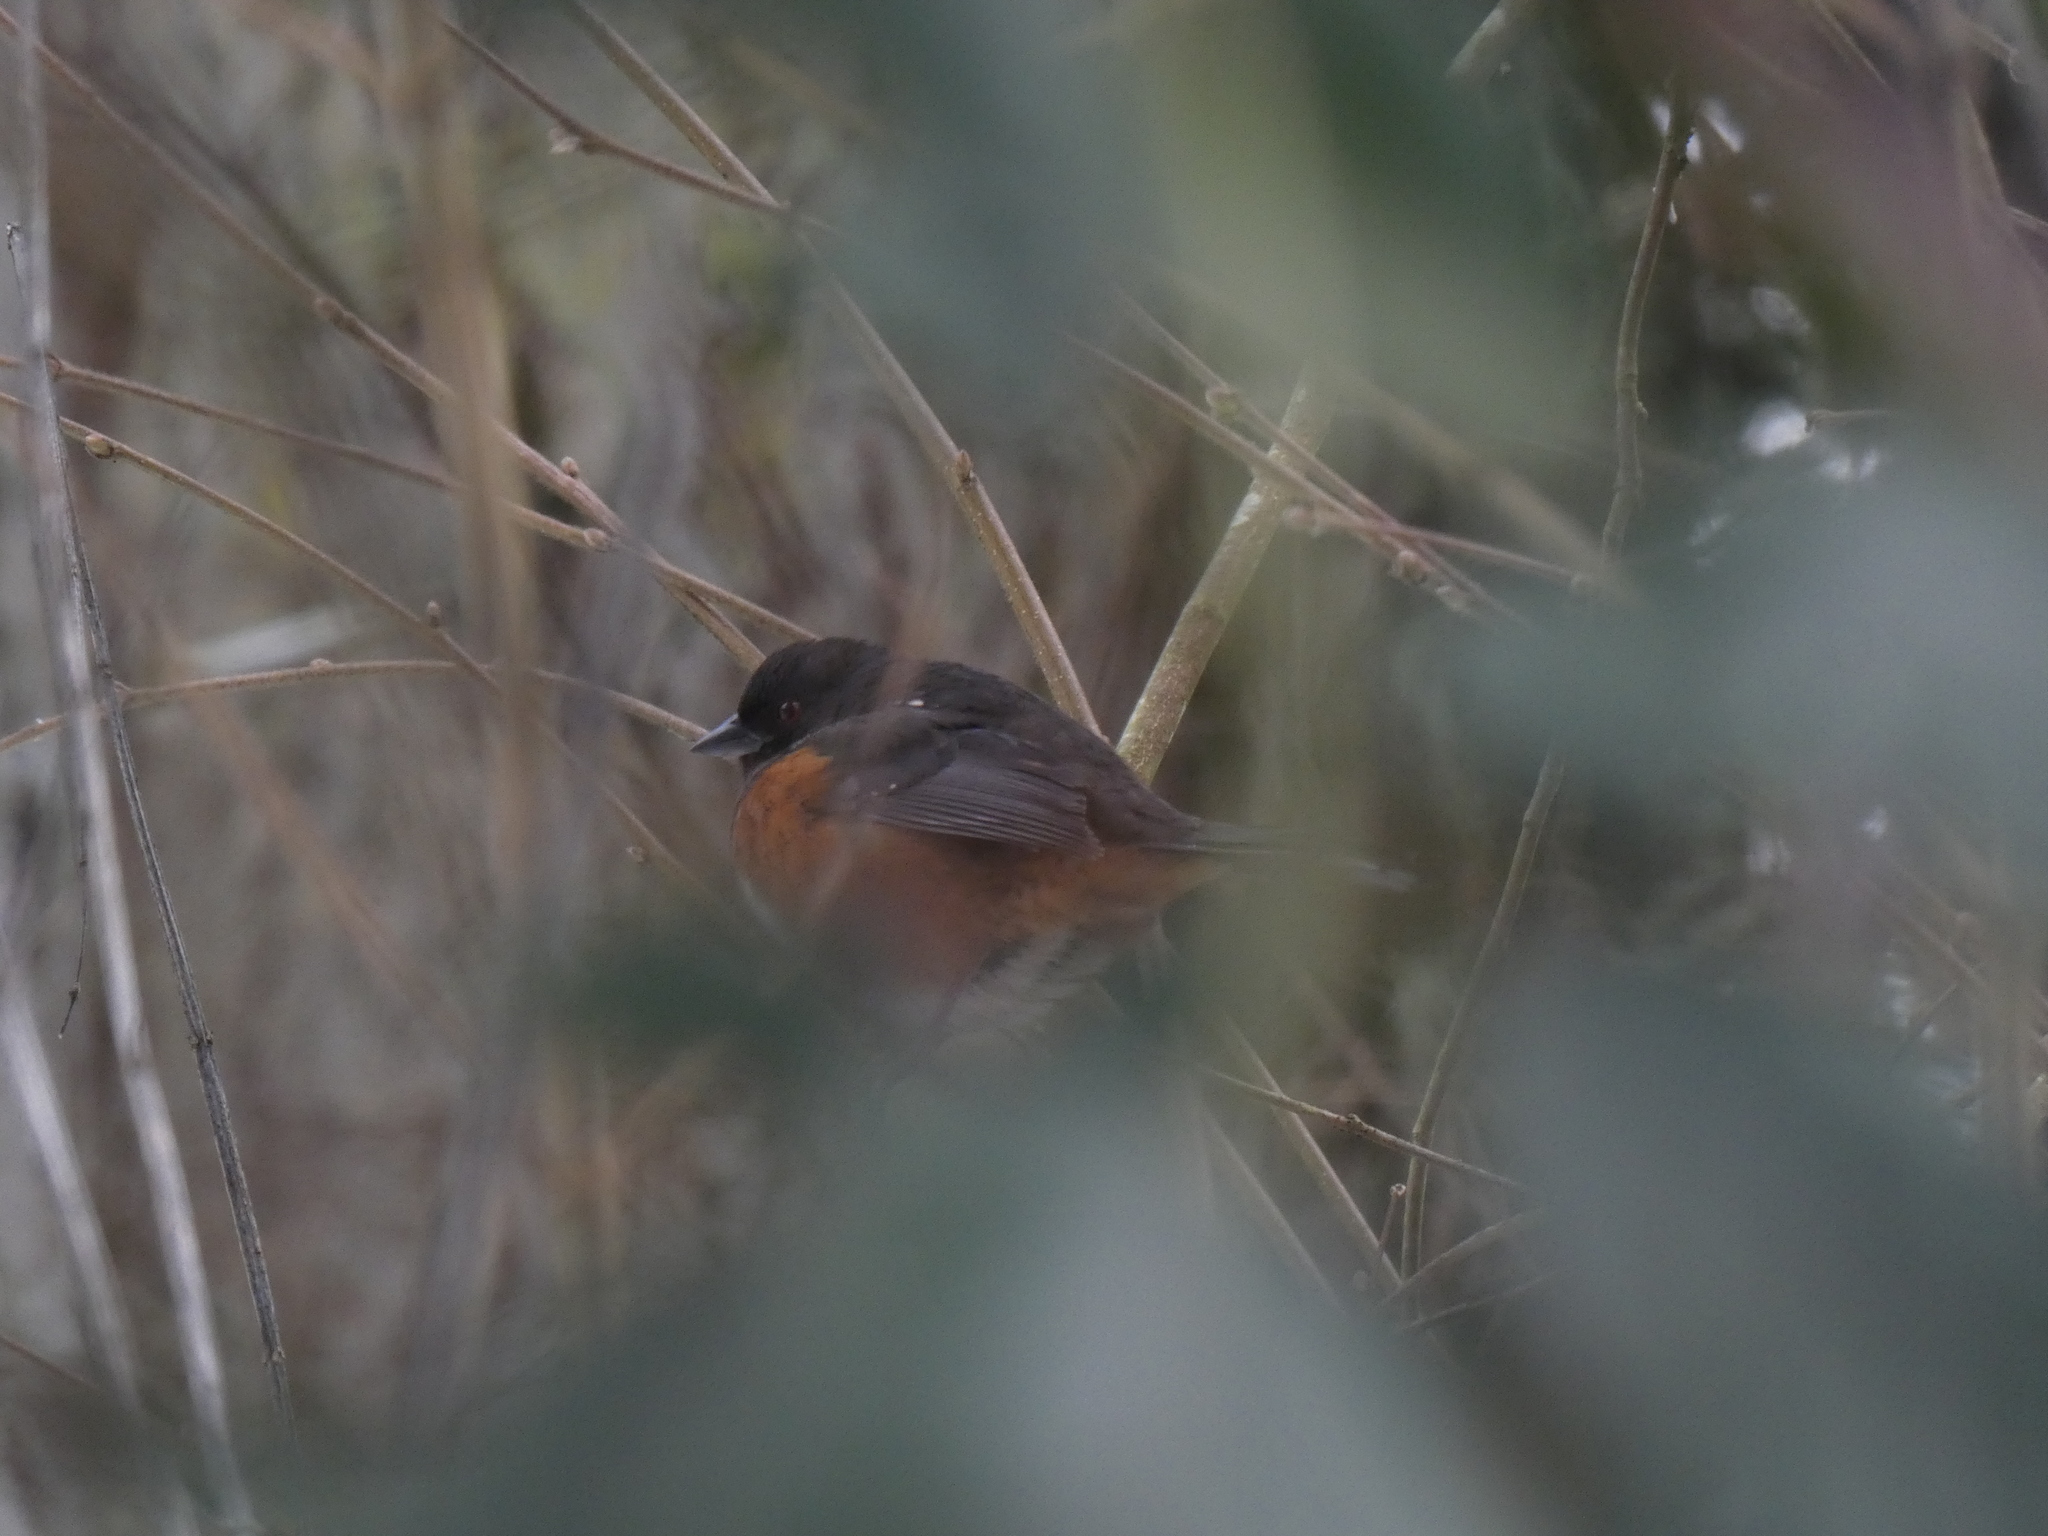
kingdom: Animalia
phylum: Chordata
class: Aves
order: Passeriformes
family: Passerellidae
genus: Pipilo
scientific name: Pipilo maculatus
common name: Spotted towhee
